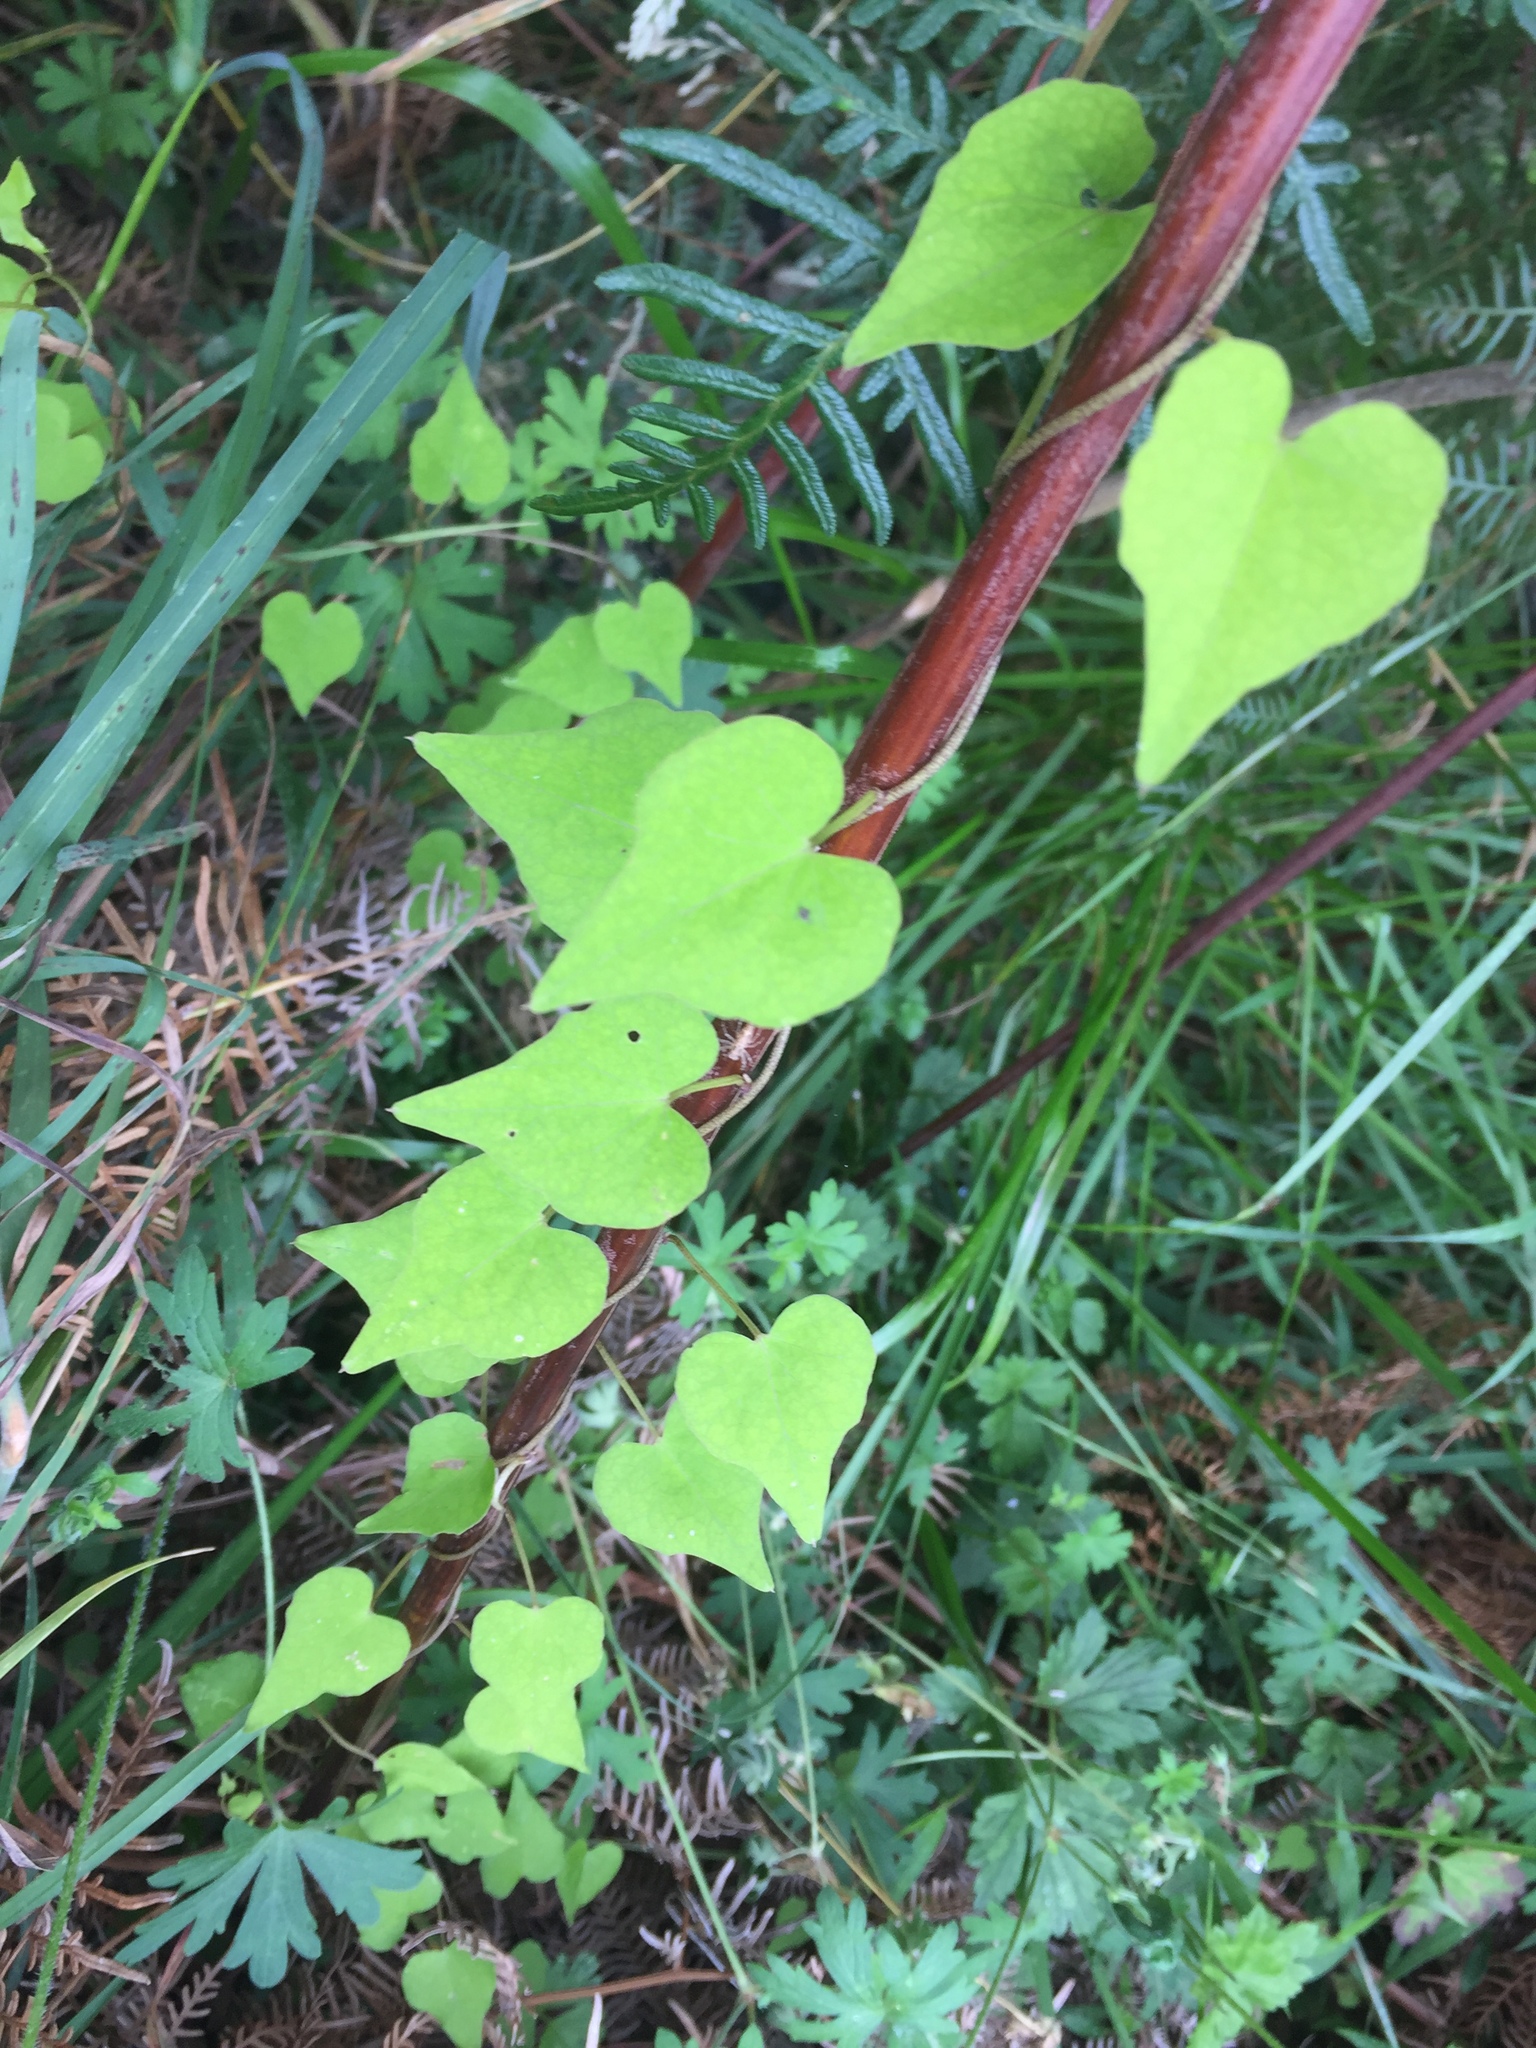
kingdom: Plantae
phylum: Tracheophyta
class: Magnoliopsida
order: Solanales
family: Convolvulaceae
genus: Calystegia
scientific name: Calystegia tuguriorum
